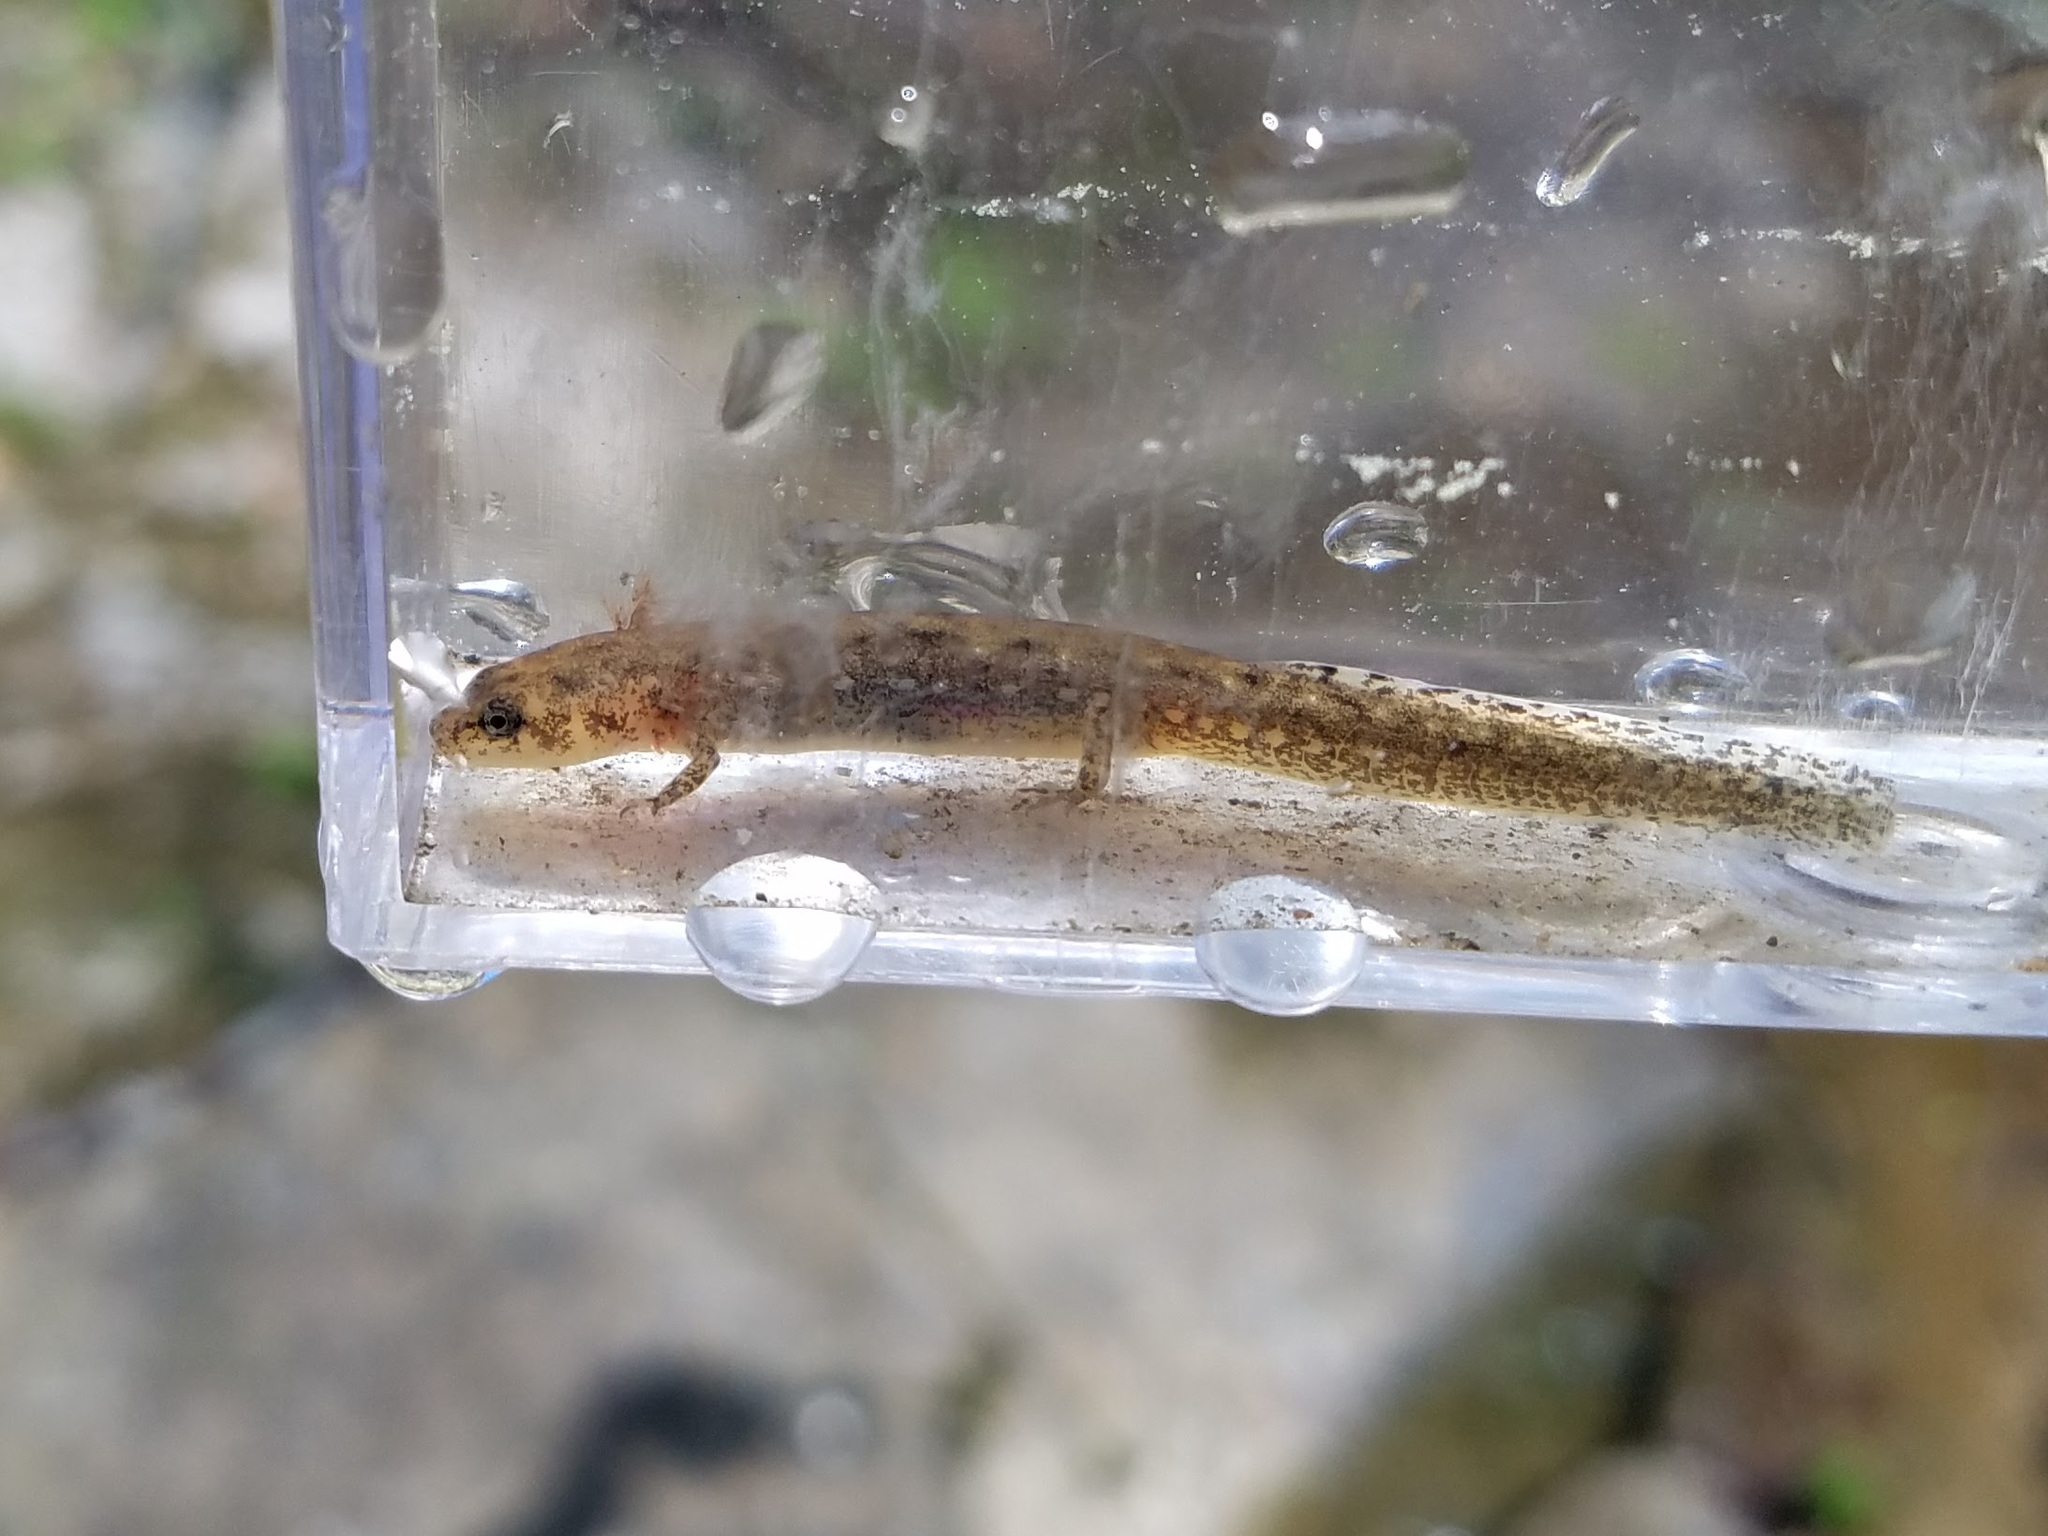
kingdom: Animalia
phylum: Chordata
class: Amphibia
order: Caudata
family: Plethodontidae
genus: Eurycea
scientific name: Eurycea
